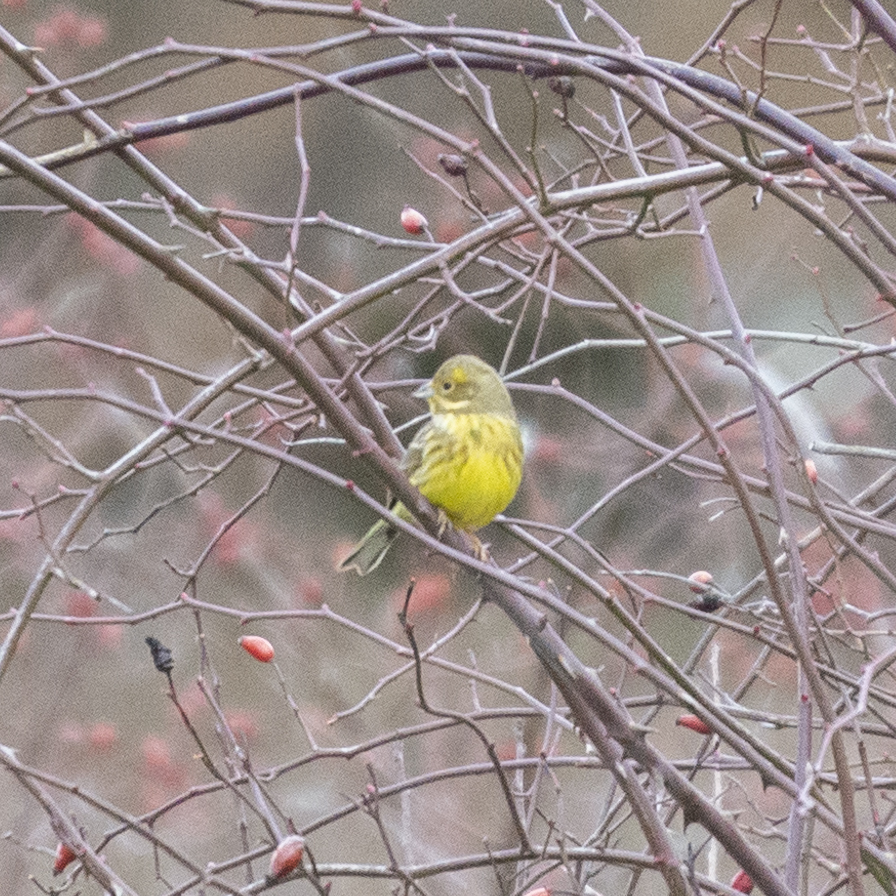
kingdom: Animalia
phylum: Chordata
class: Aves
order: Passeriformes
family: Emberizidae
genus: Emberiza
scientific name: Emberiza citrinella
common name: Yellowhammer
